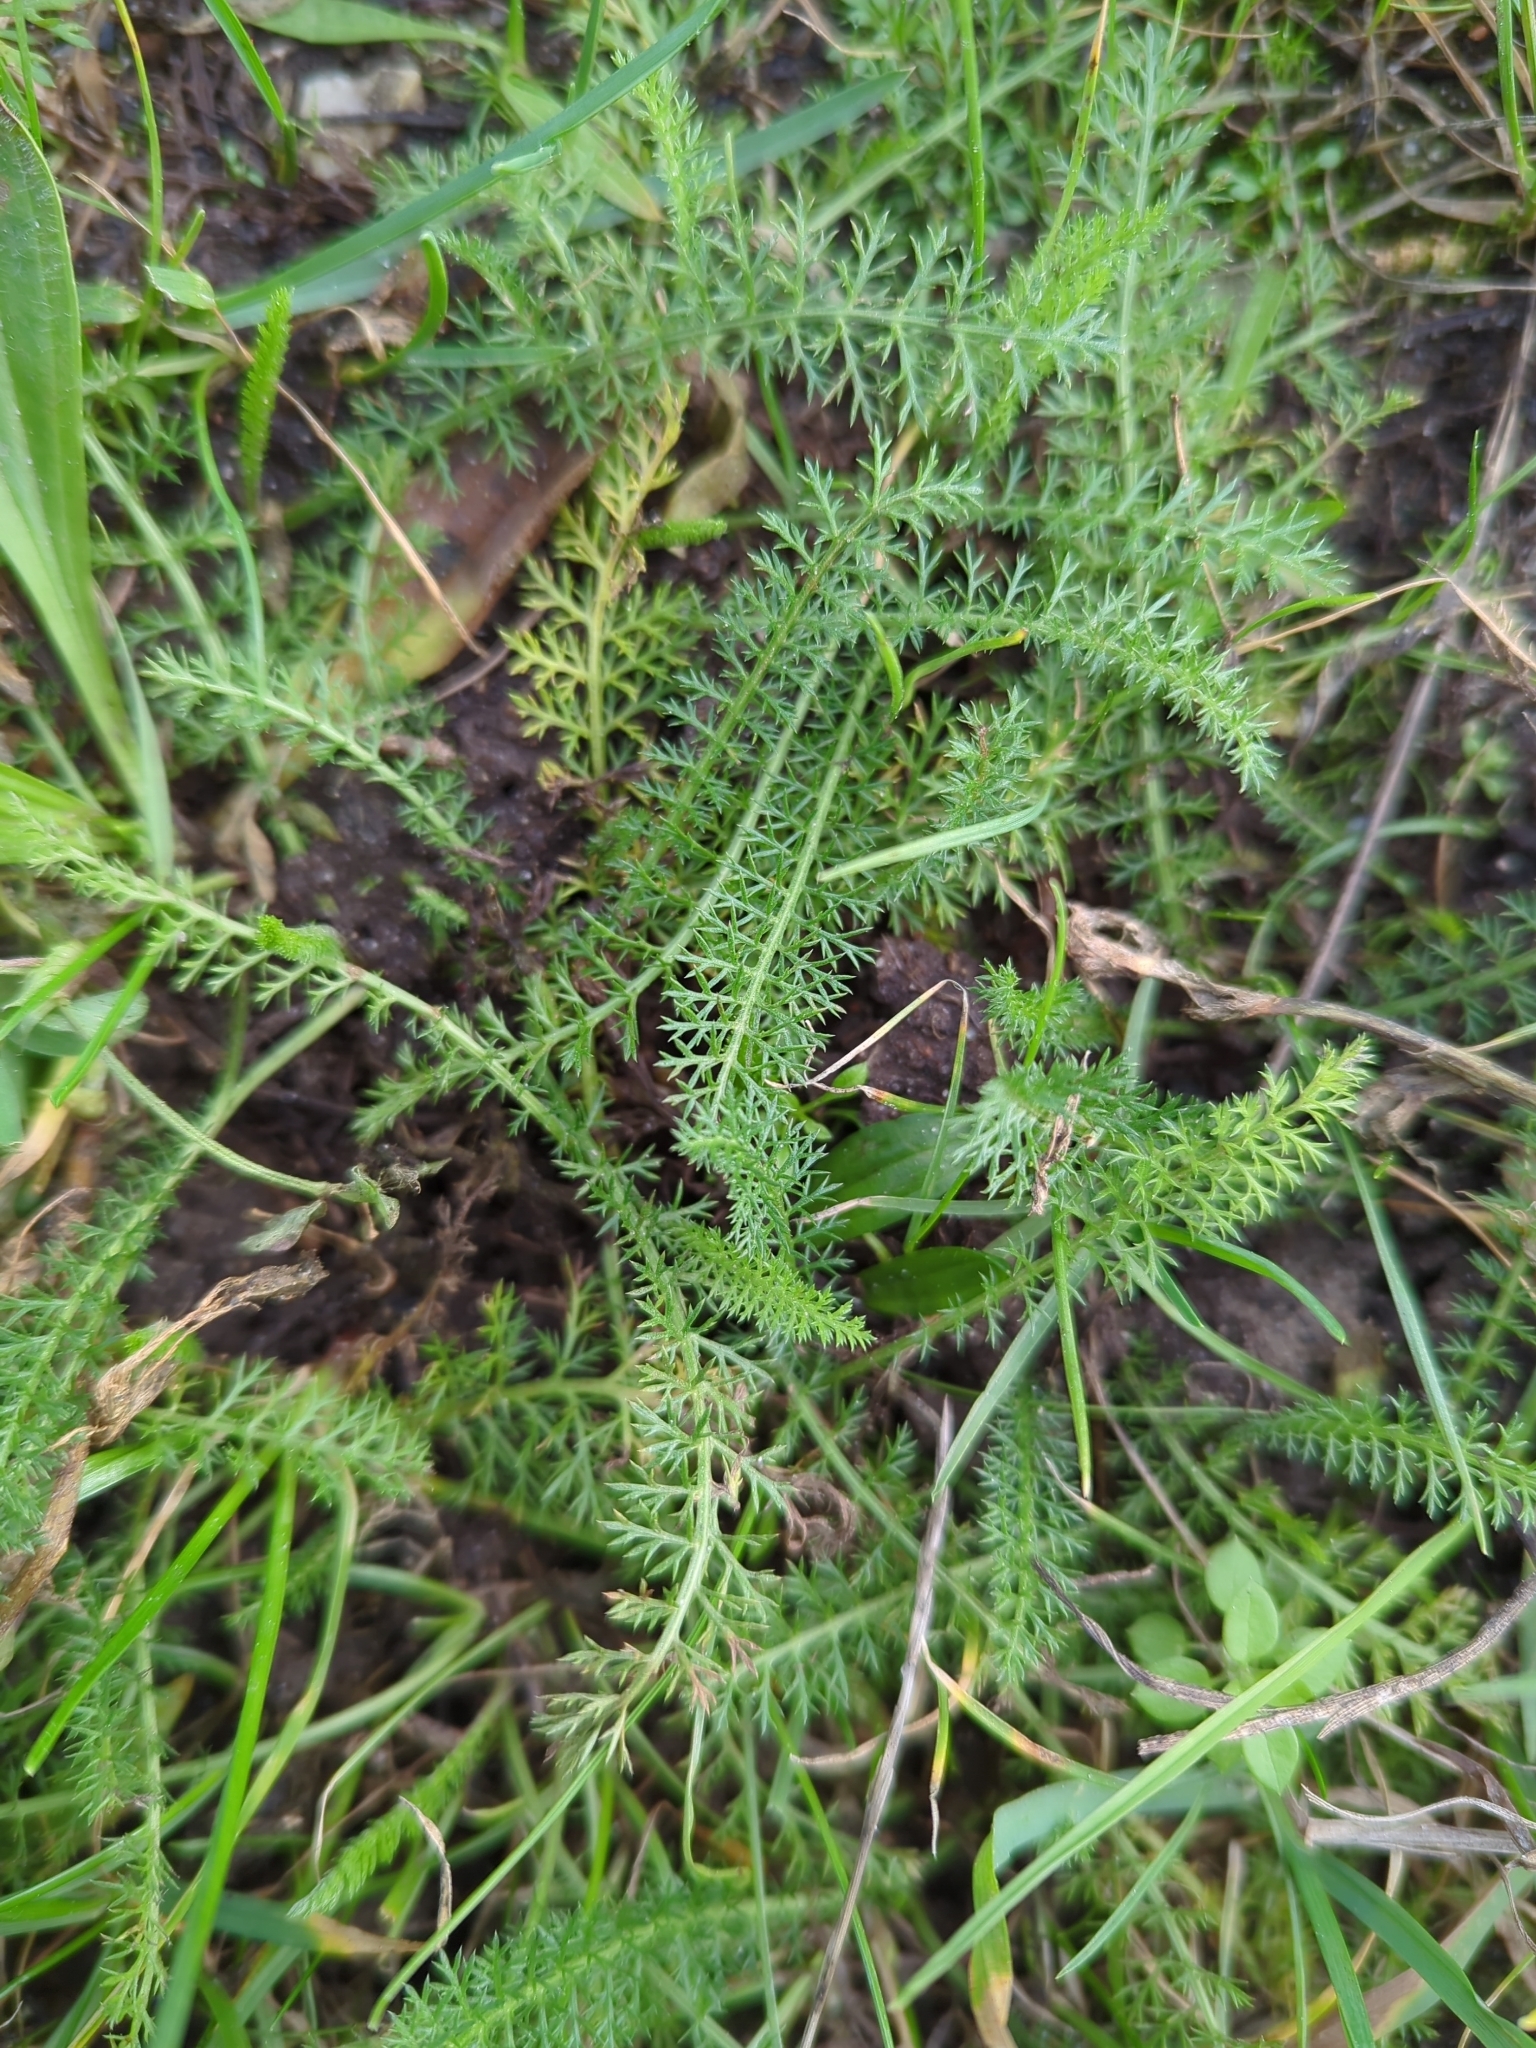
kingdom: Plantae
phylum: Tracheophyta
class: Magnoliopsida
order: Asterales
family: Asteraceae
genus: Achillea
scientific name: Achillea millefolium
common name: Yarrow
